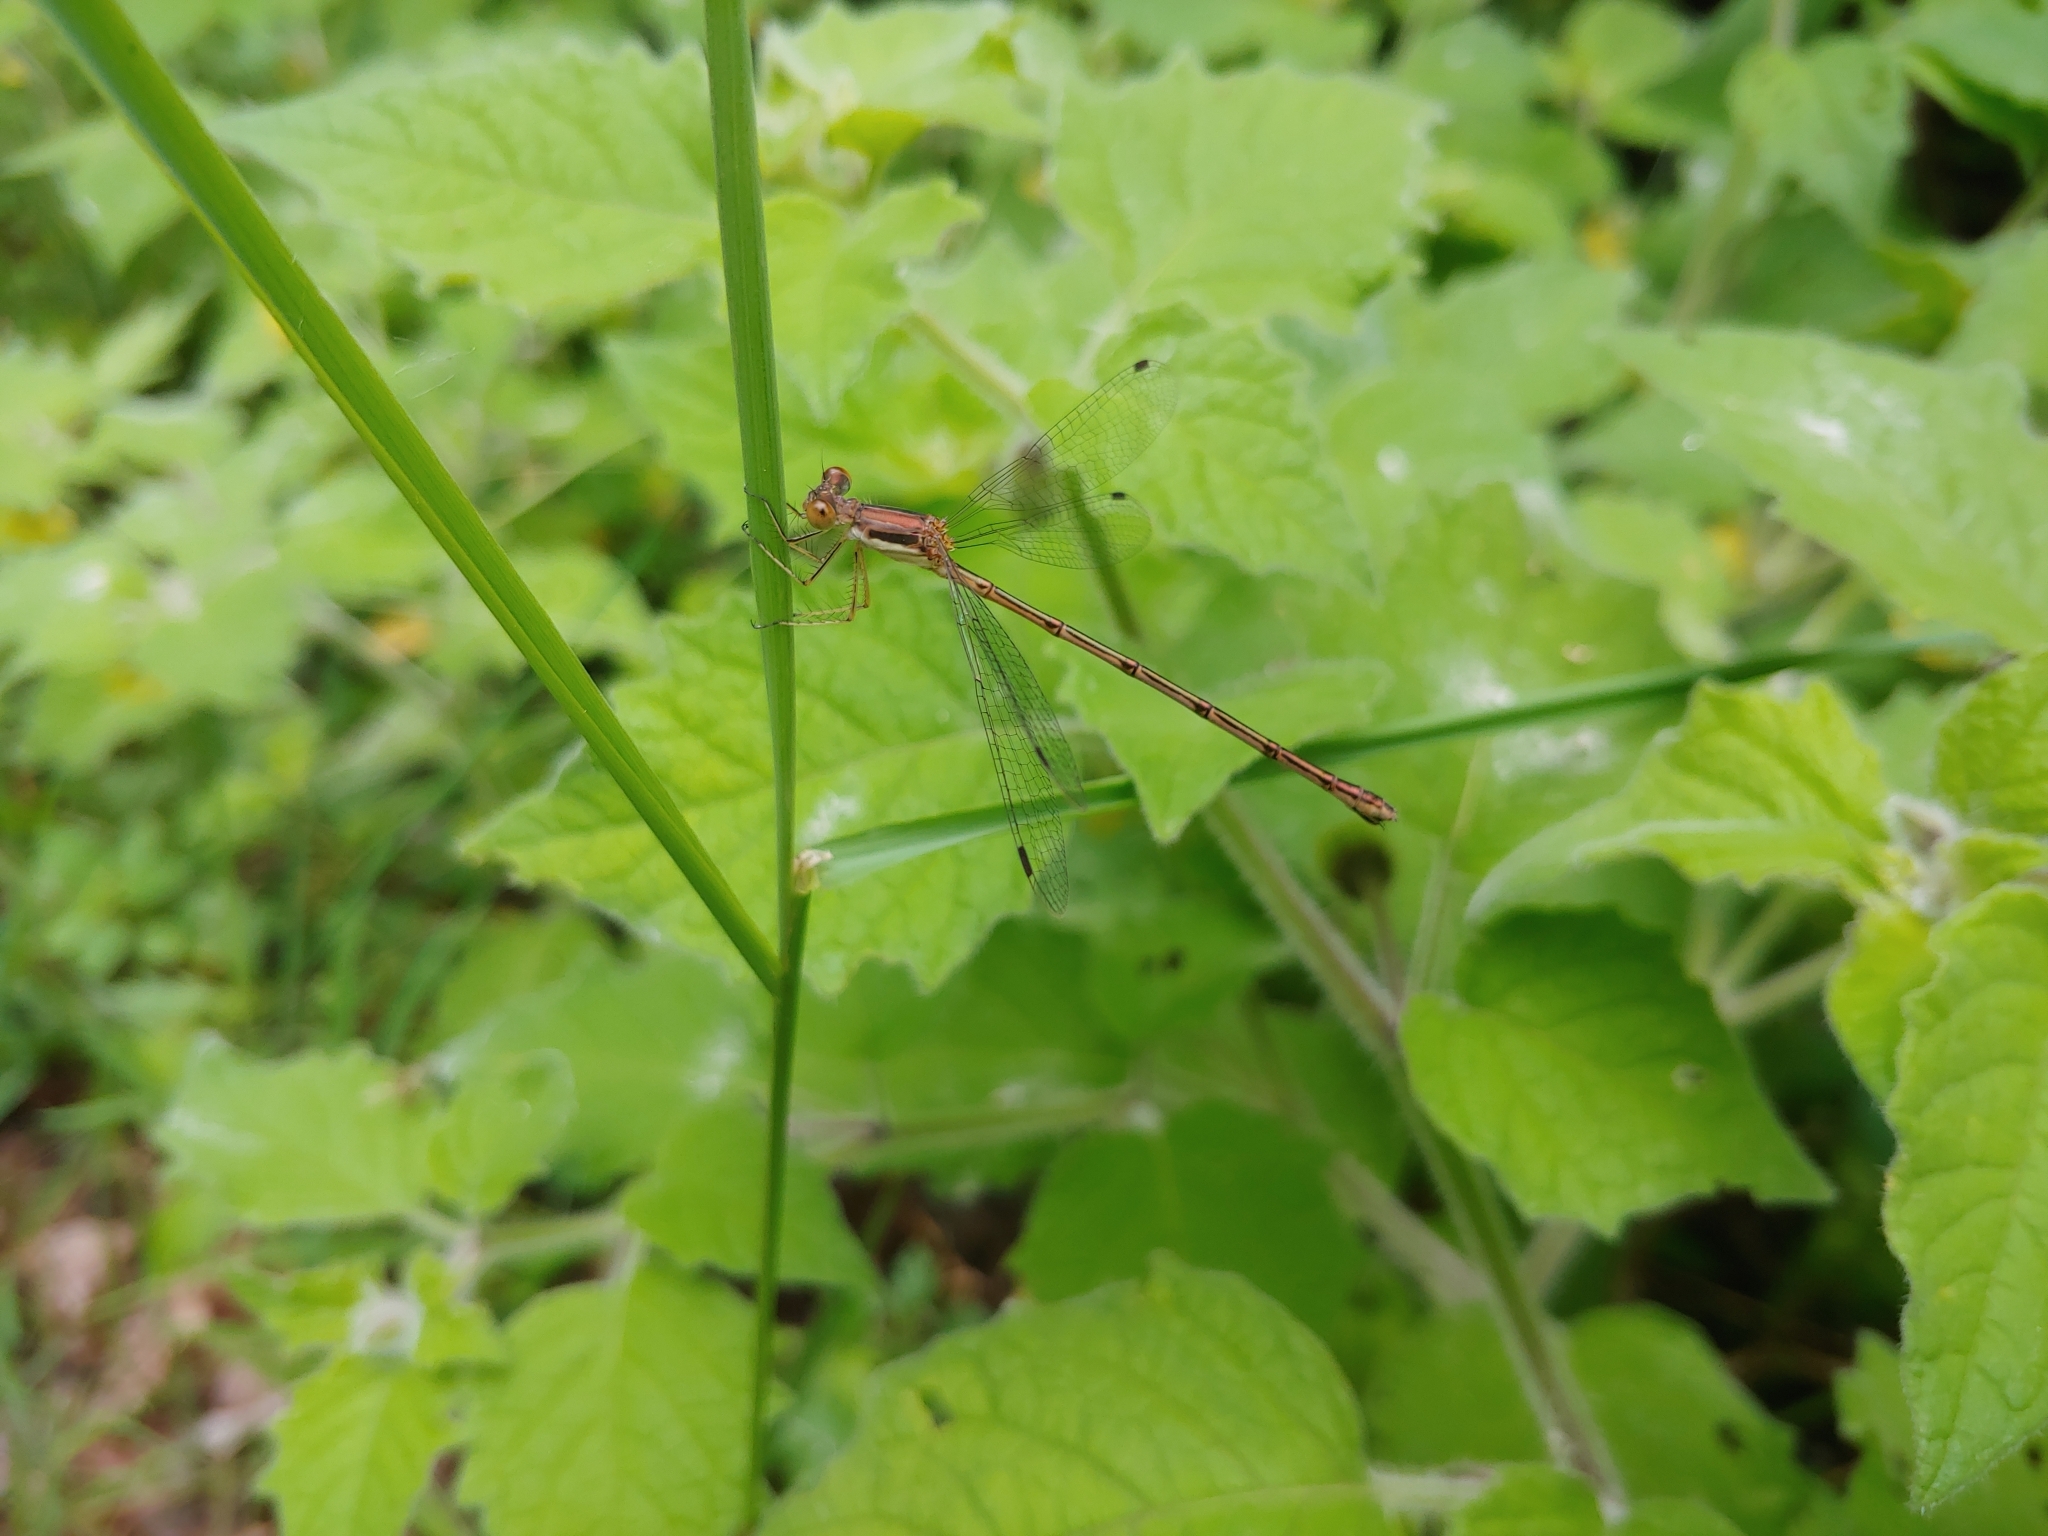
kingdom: Animalia
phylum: Arthropoda
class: Insecta
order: Odonata
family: Lestidae
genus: Lestes
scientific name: Lestes rectangularis
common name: Slender spreadwing
